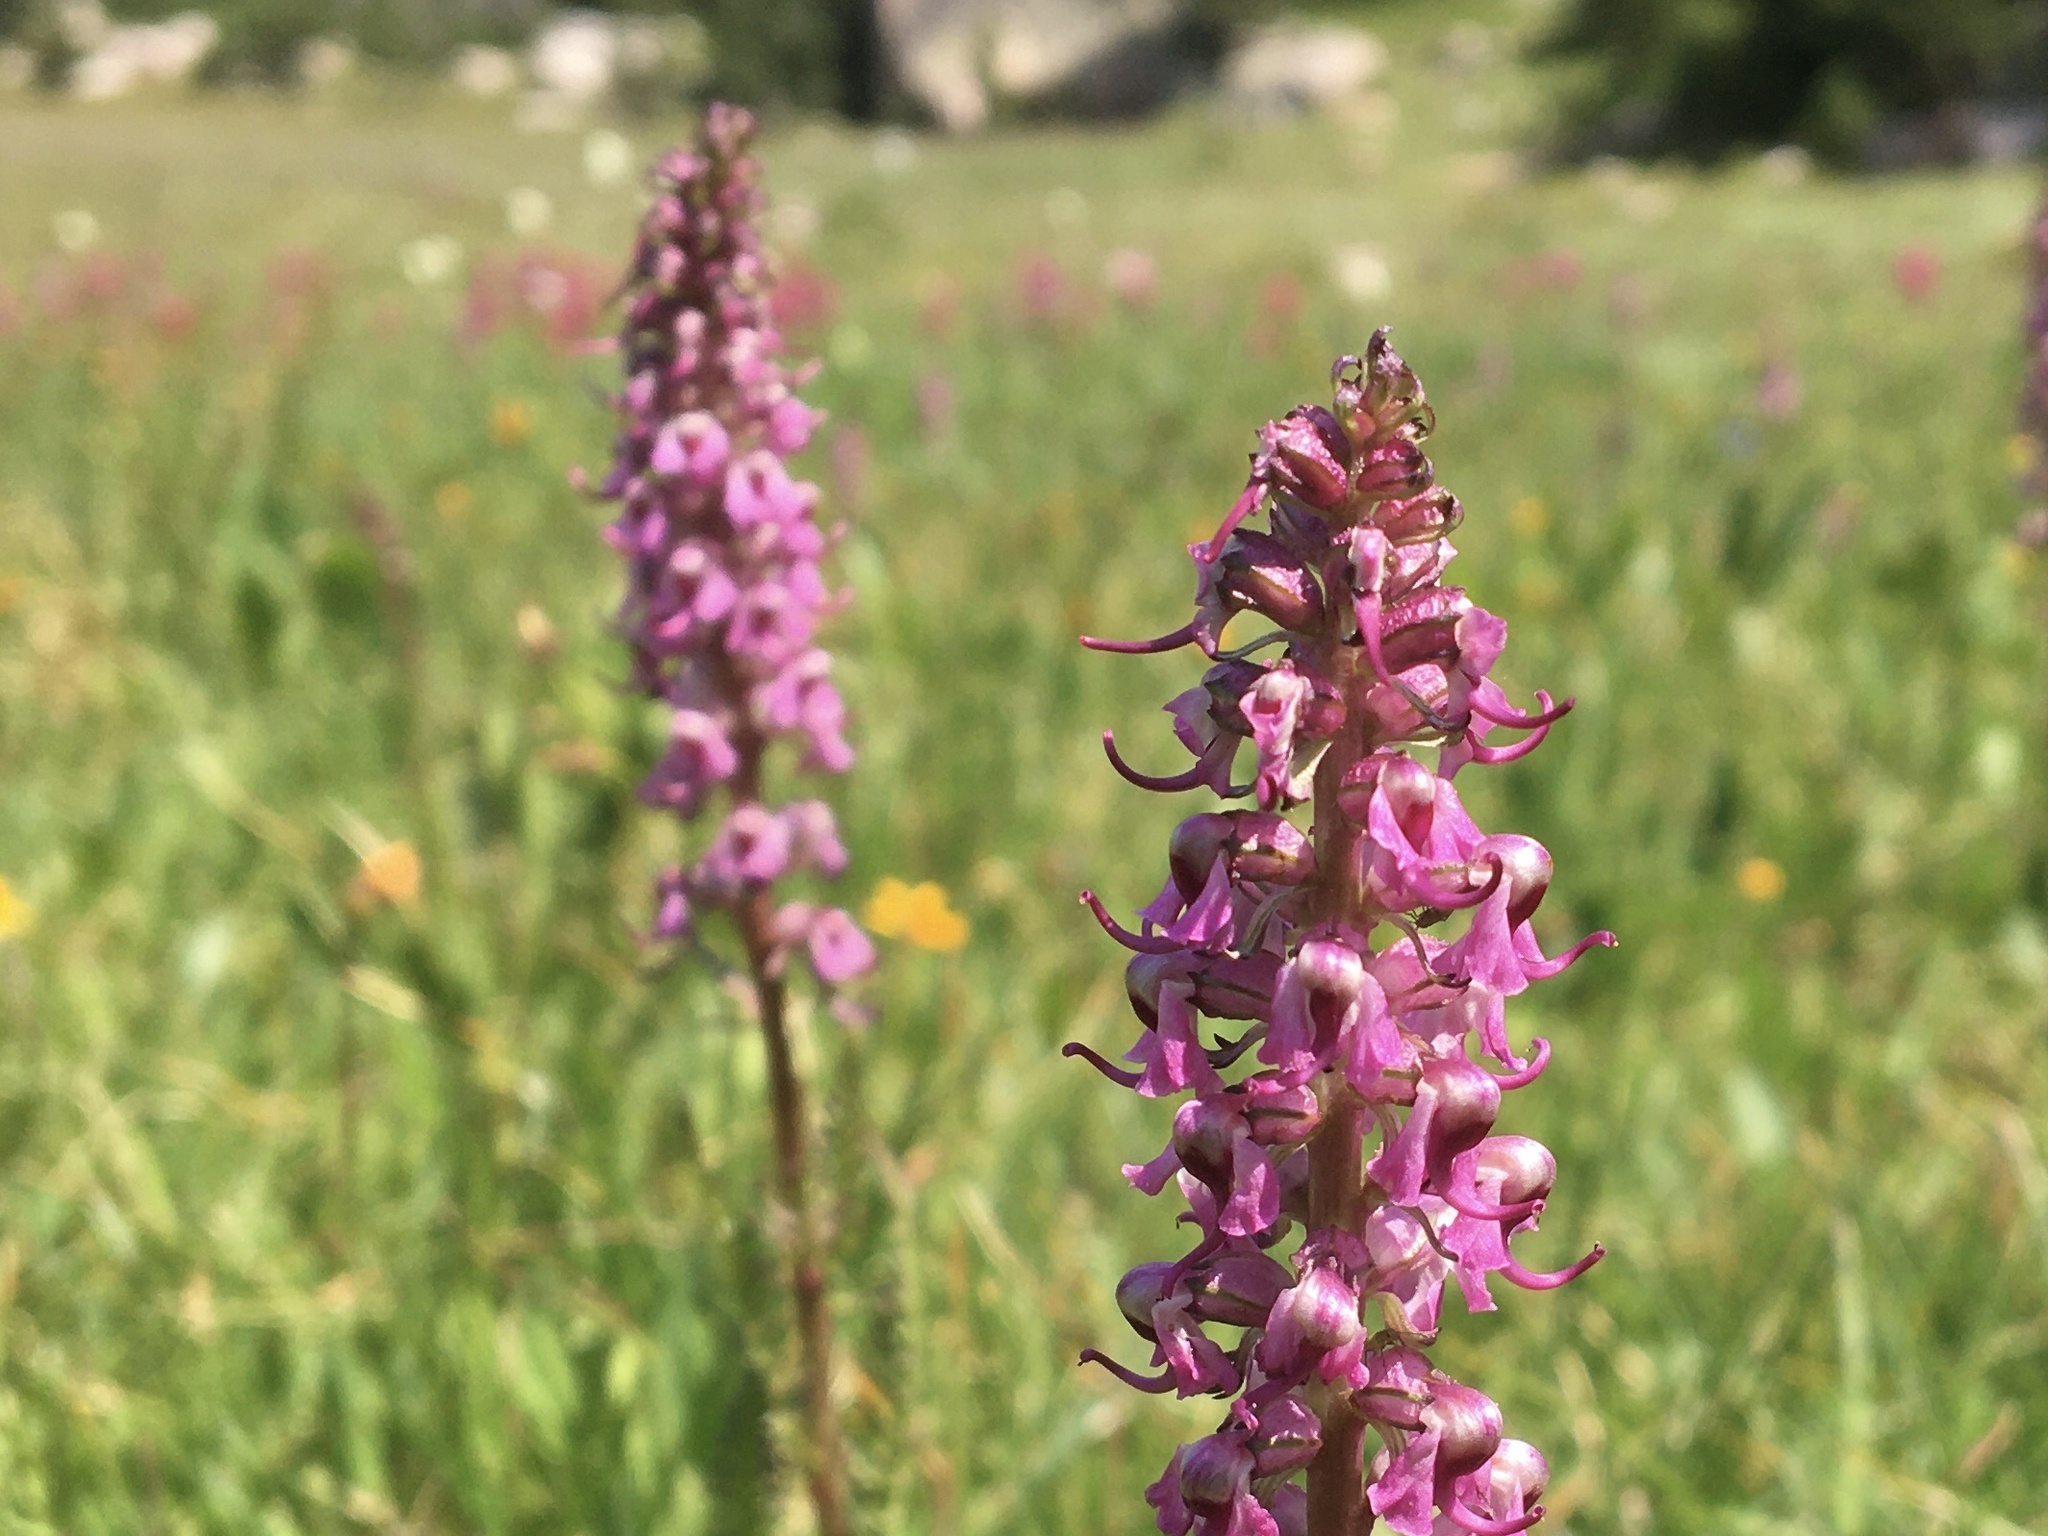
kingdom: Plantae
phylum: Tracheophyta
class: Magnoliopsida
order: Lamiales
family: Orobanchaceae
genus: Pedicularis
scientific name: Pedicularis groenlandica
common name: Elephant's-head
